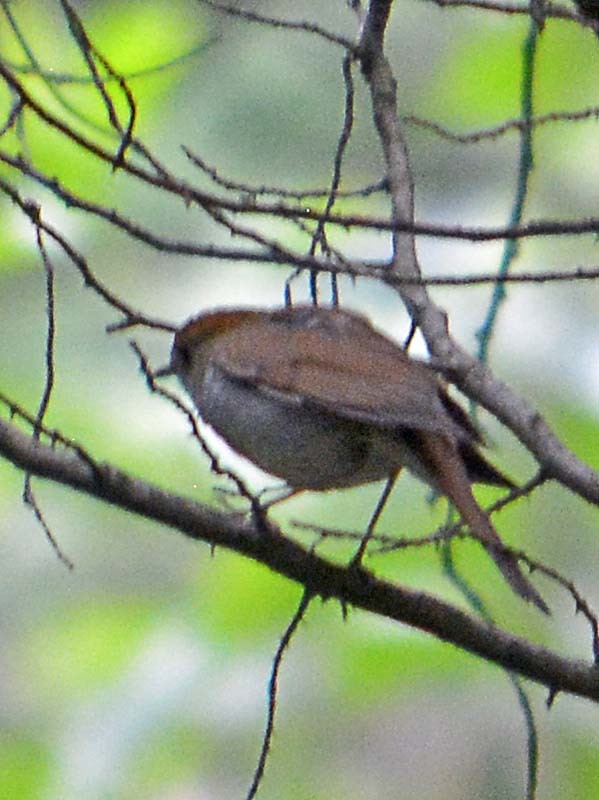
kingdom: Animalia
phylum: Chordata
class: Aves
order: Passeriformes
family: Turdidae
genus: Catharus
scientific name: Catharus occidentalis
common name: Russet nightingale-thrush
